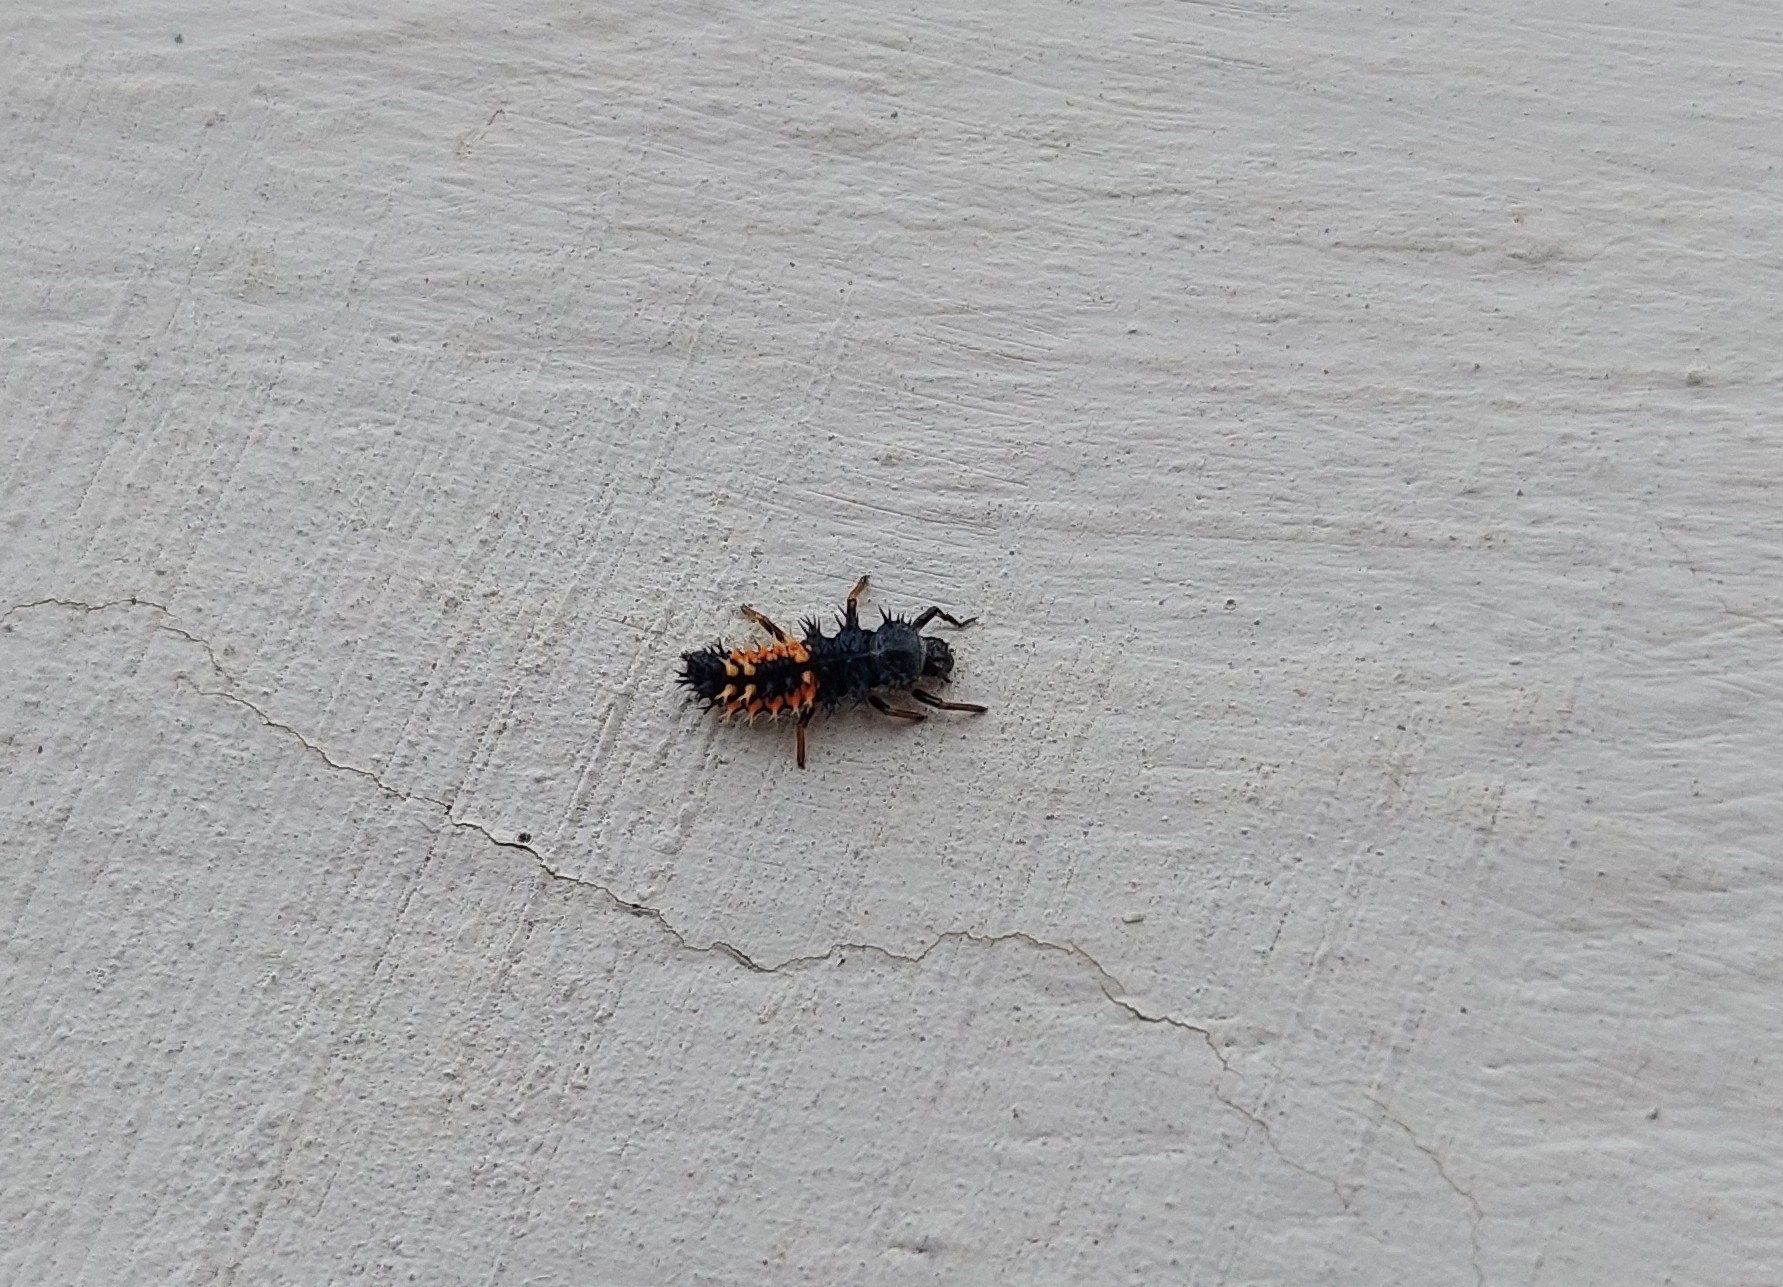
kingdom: Animalia
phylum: Arthropoda
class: Insecta
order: Coleoptera
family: Coccinellidae
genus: Harmonia
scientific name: Harmonia axyridis
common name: Harlequin ladybird
